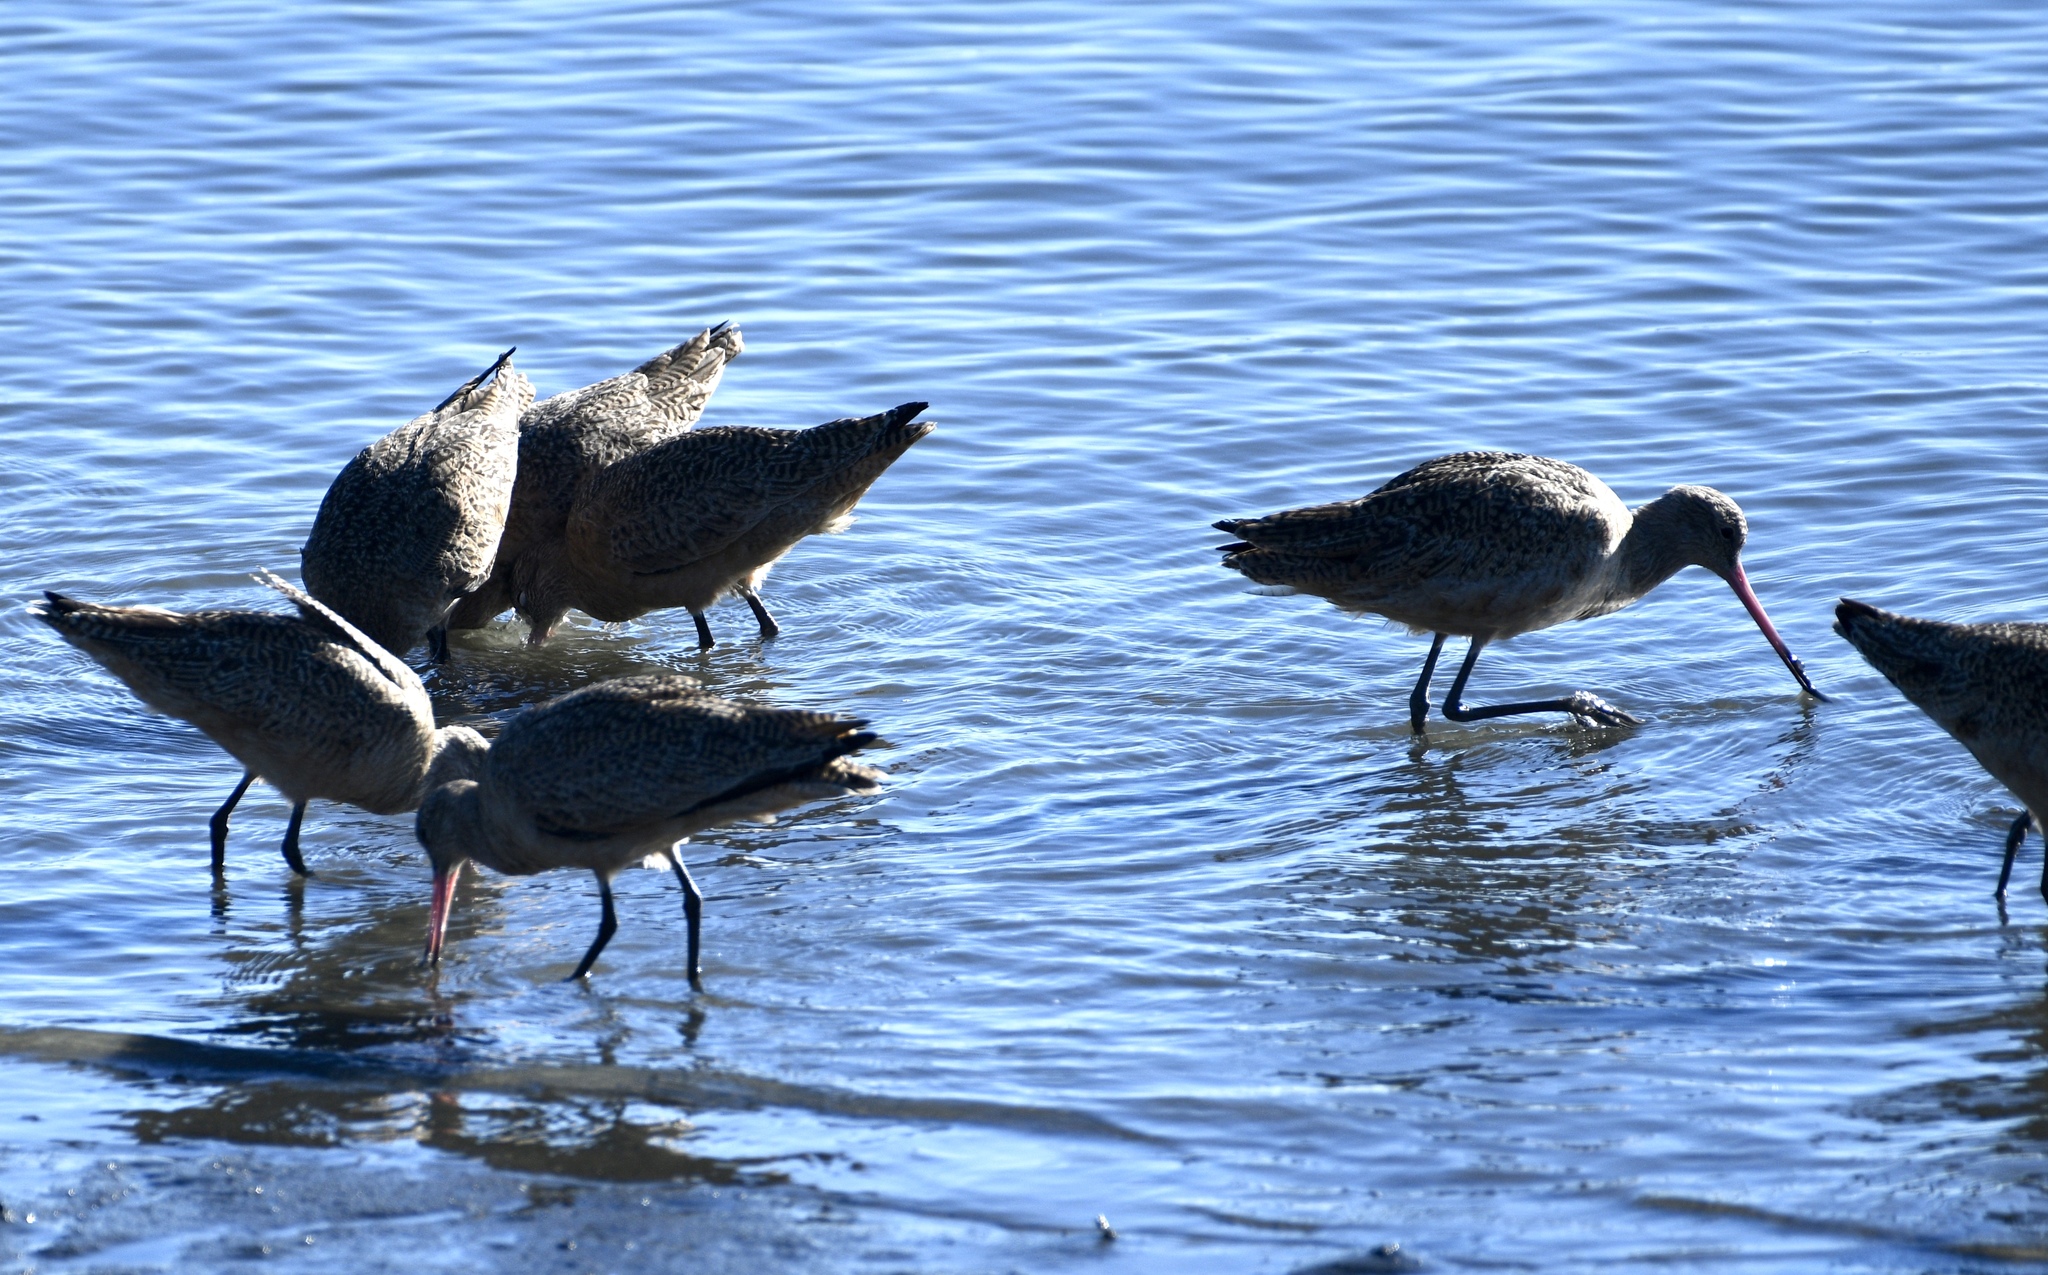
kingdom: Animalia
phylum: Chordata
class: Aves
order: Charadriiformes
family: Scolopacidae
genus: Limosa
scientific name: Limosa fedoa
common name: Marbled godwit
